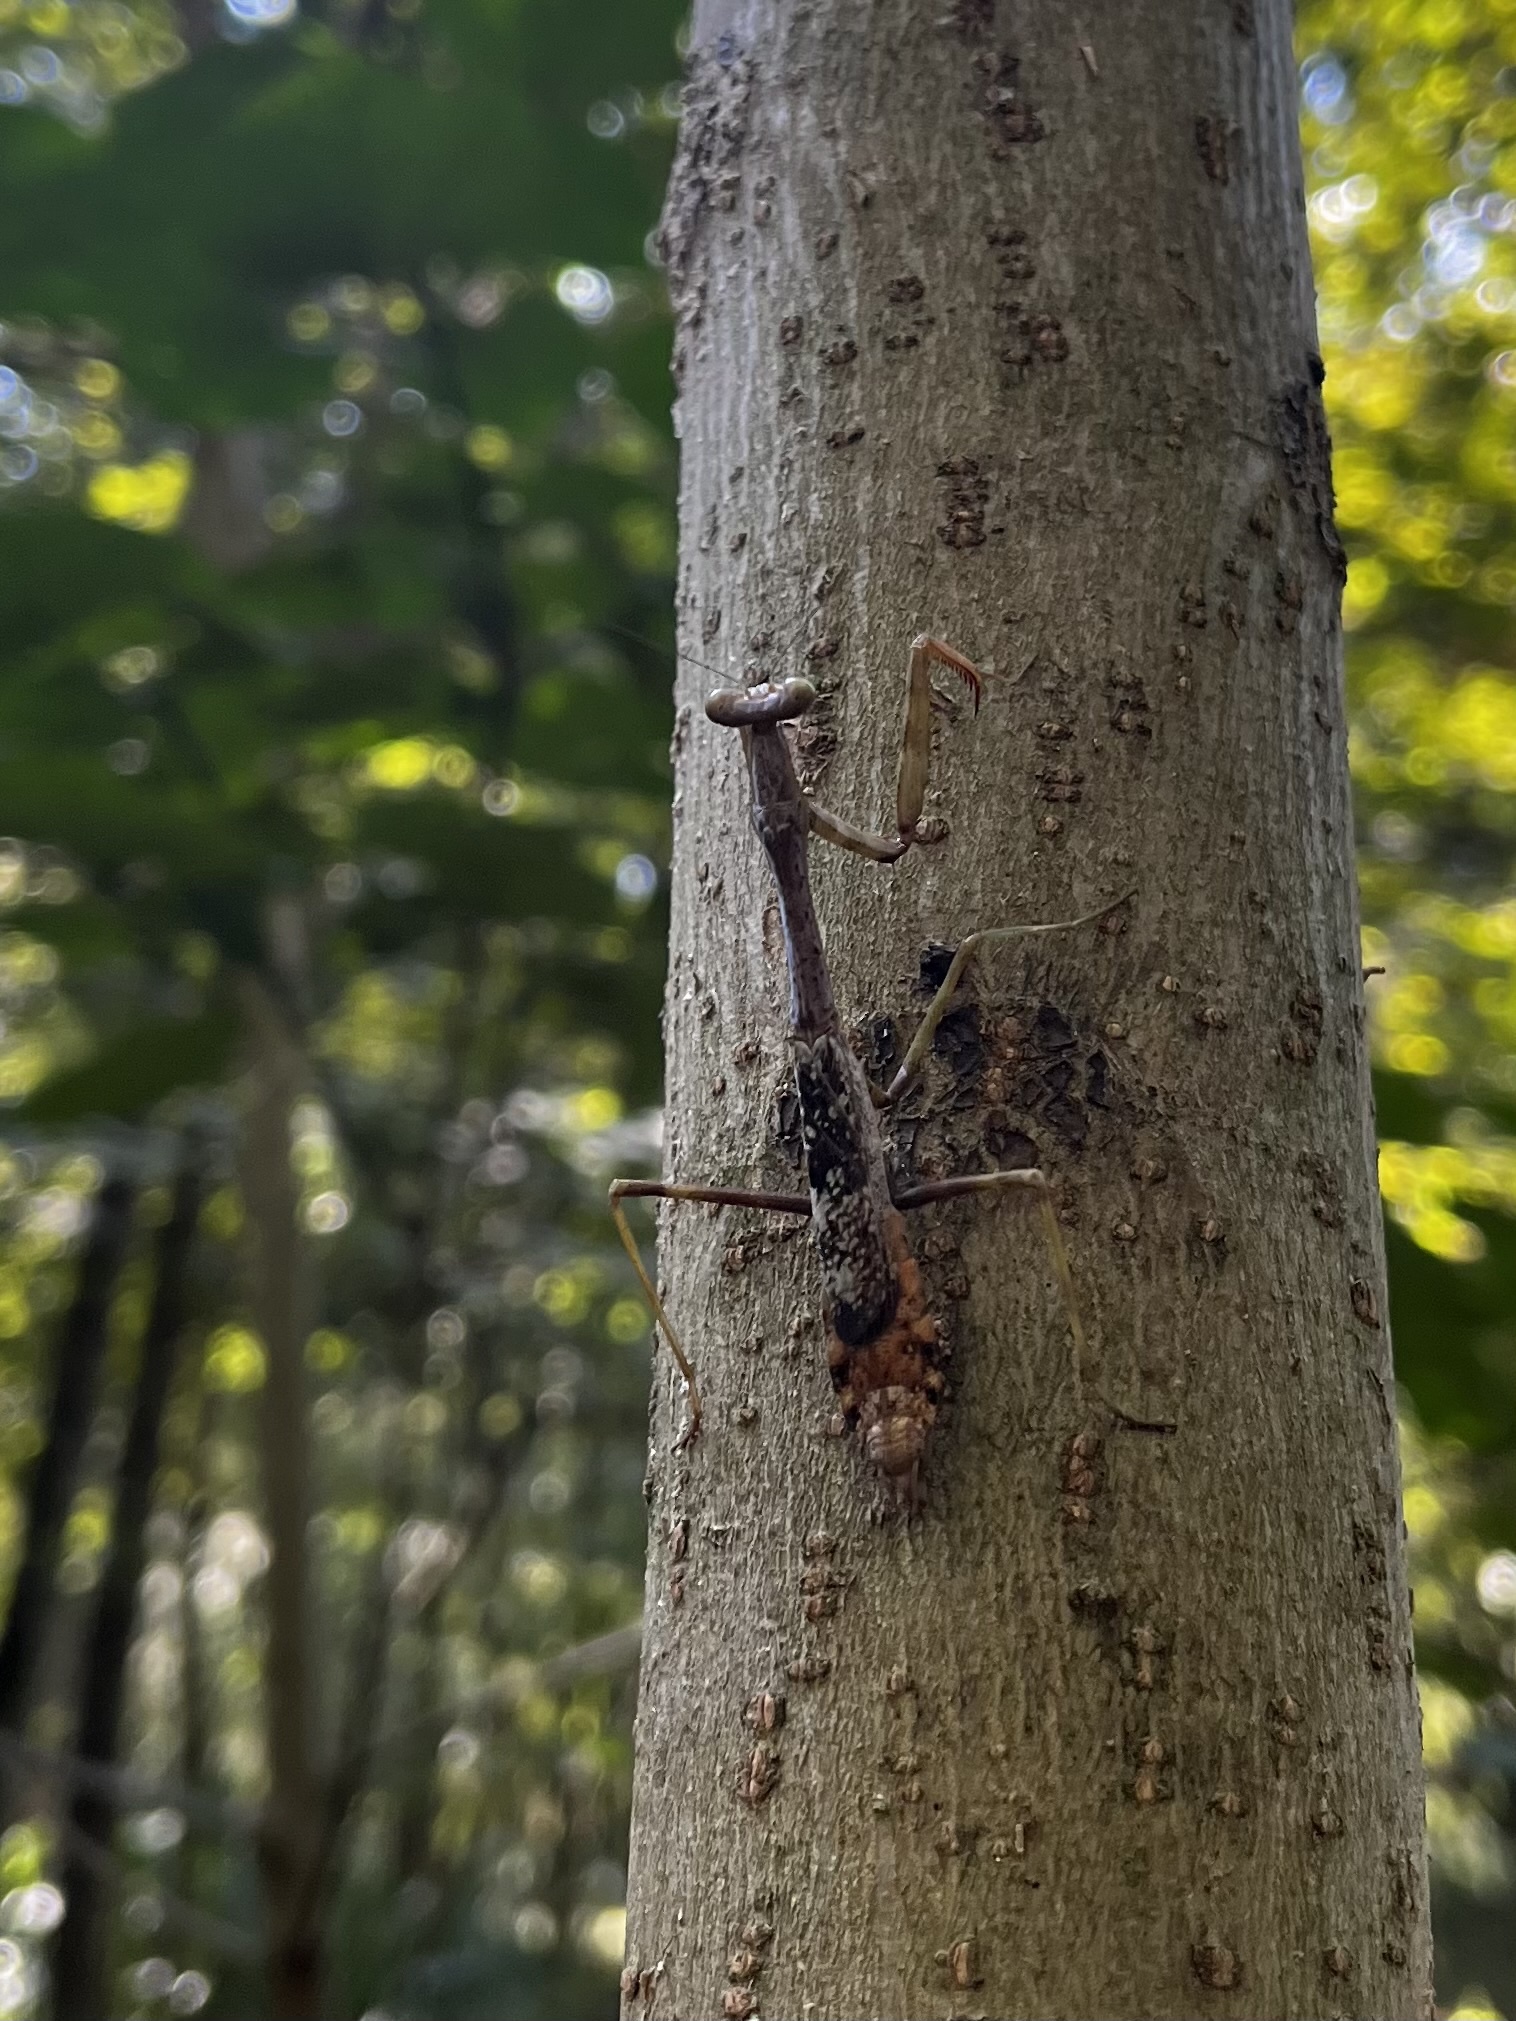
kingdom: Animalia
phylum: Arthropoda
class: Insecta
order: Mantodea
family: Mantidae
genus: Stagmomantis
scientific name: Stagmomantis carolina
